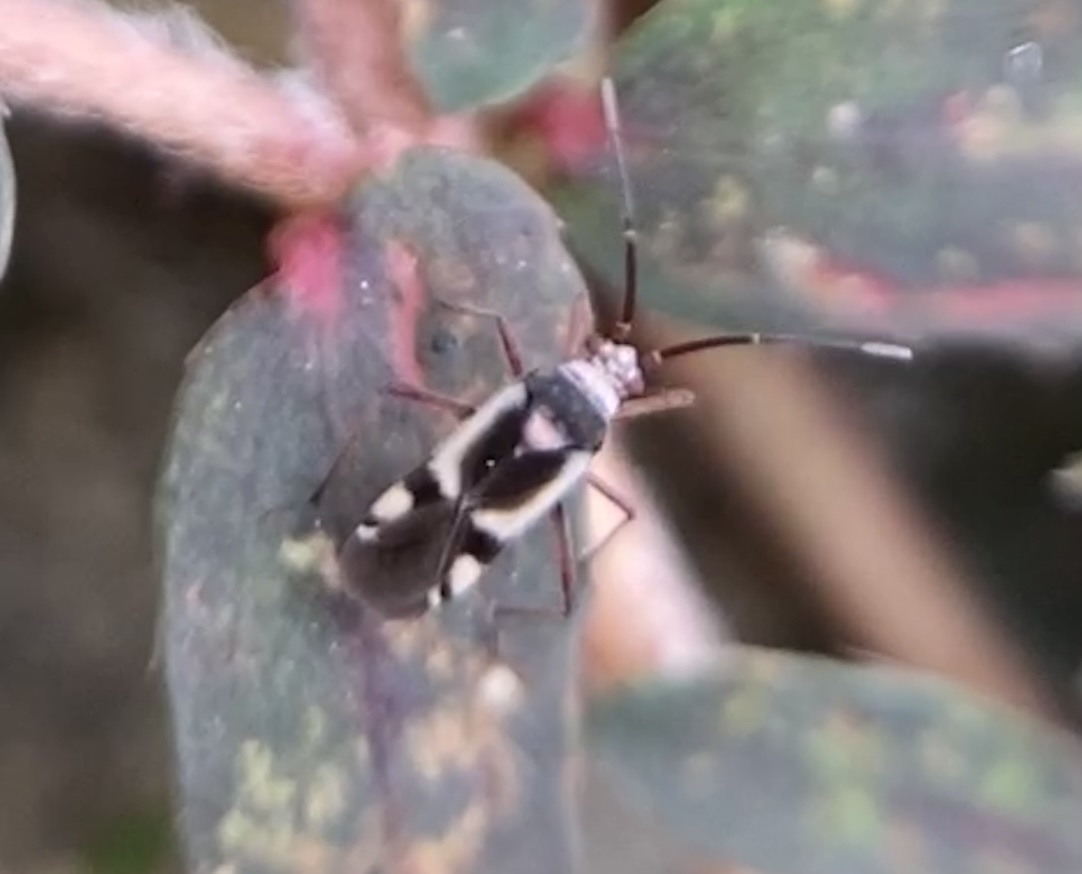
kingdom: Animalia
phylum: Arthropoda
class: Insecta
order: Hemiptera
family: Miridae
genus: Semium
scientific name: Semium hirtum
